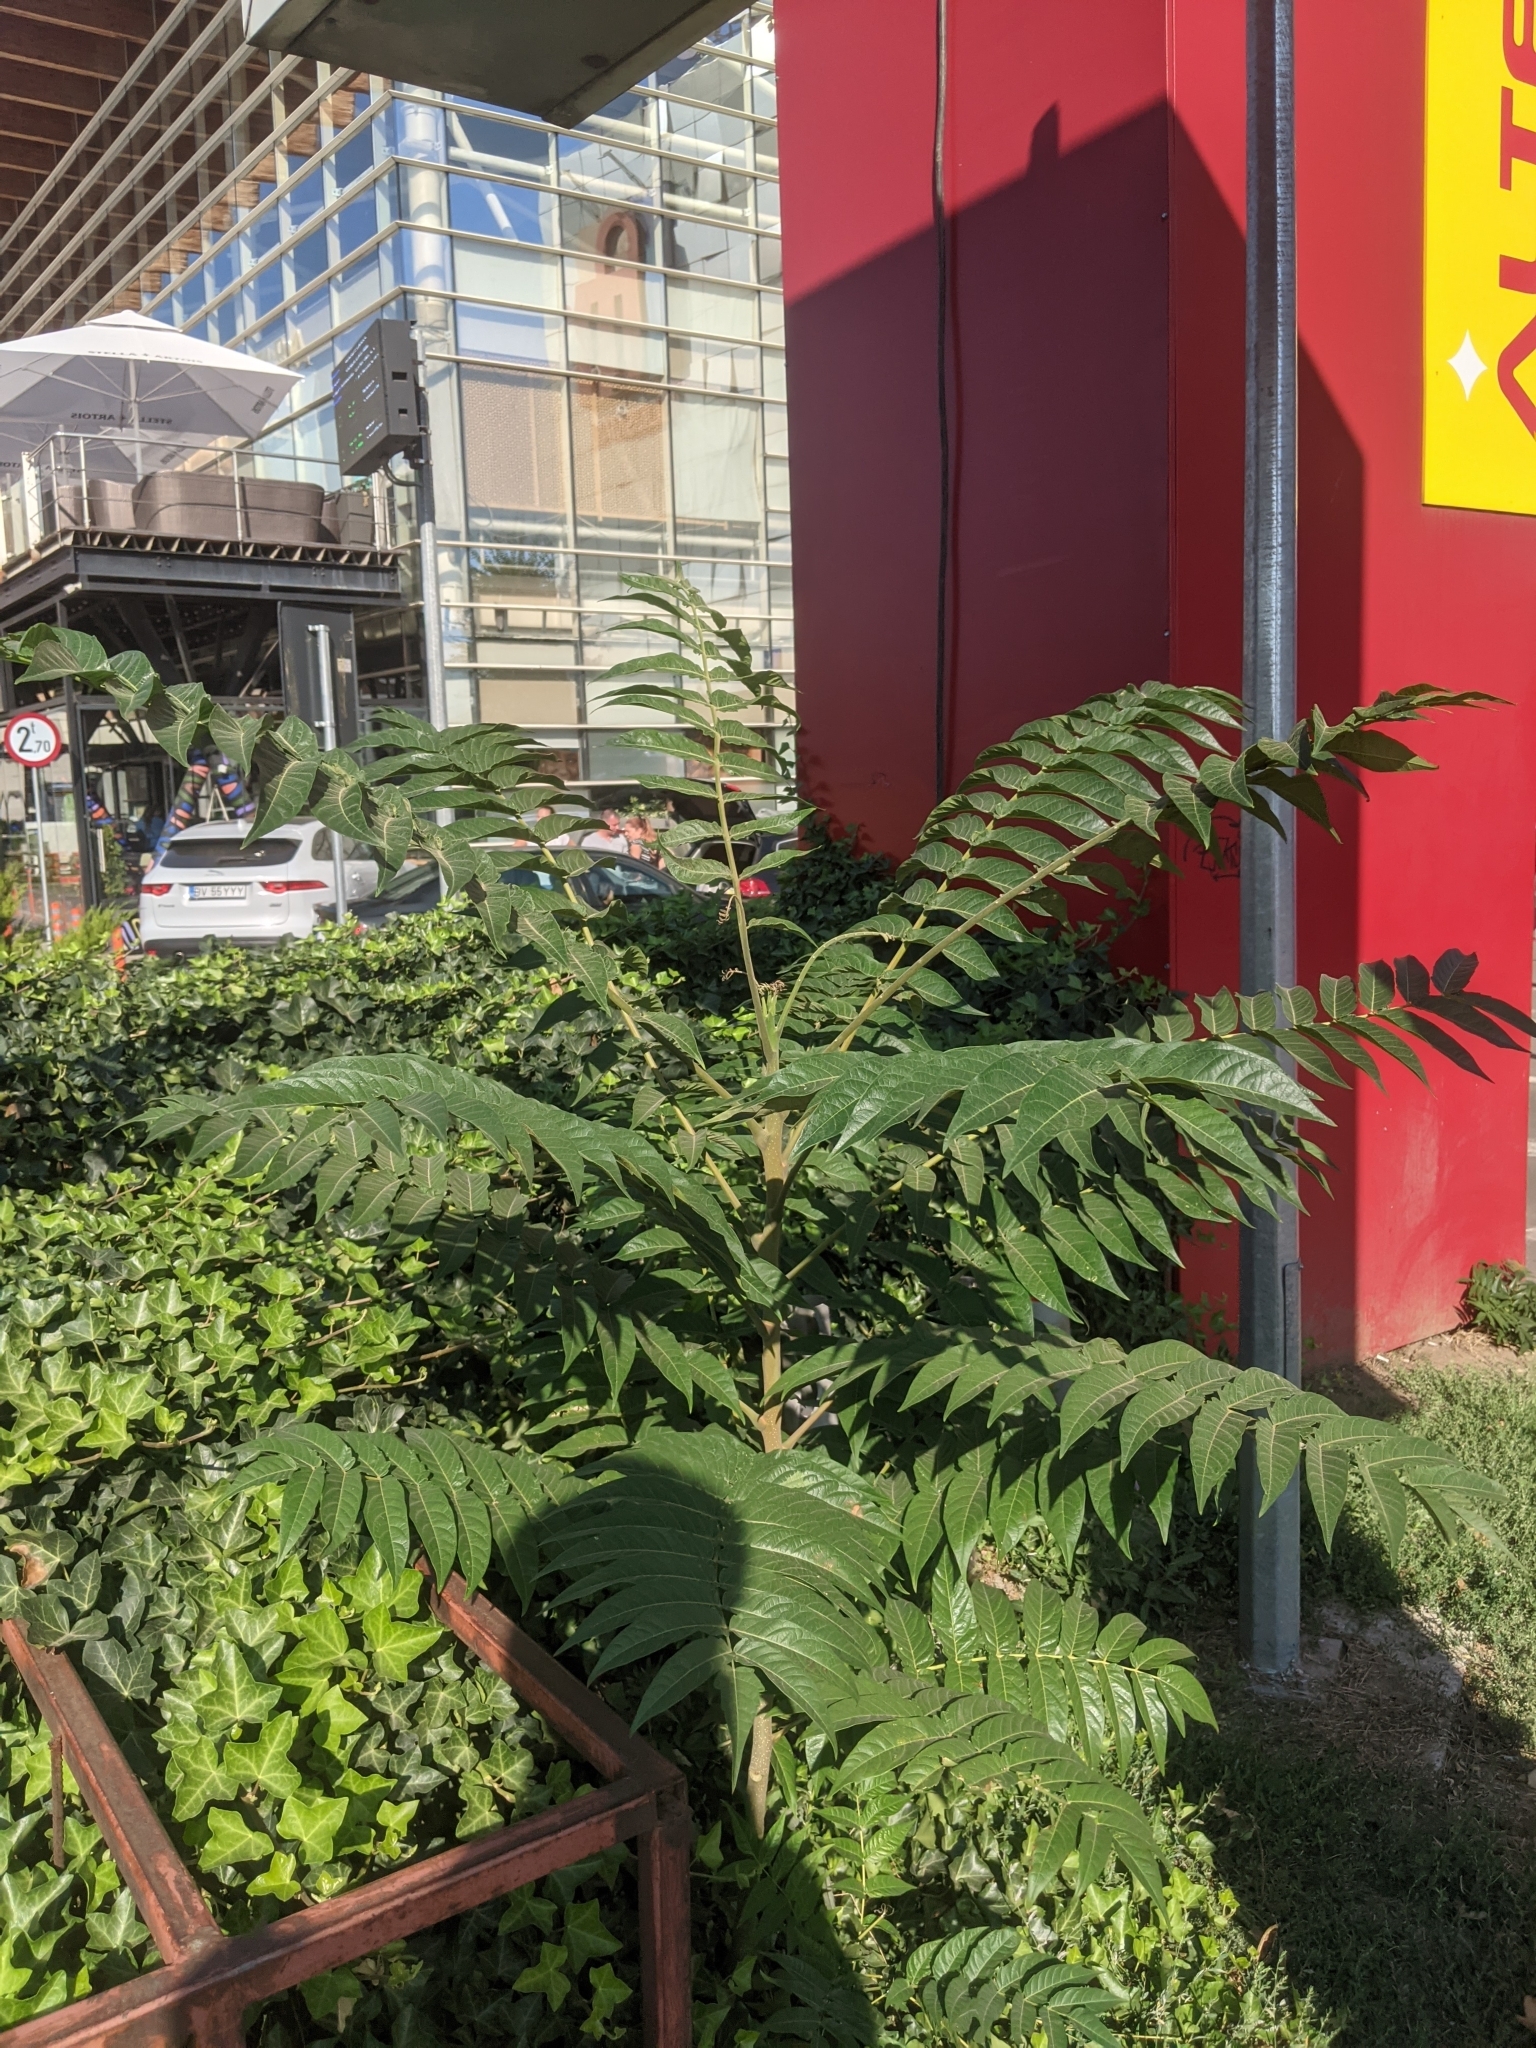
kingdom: Plantae
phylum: Tracheophyta
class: Magnoliopsida
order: Sapindales
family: Simaroubaceae
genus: Ailanthus
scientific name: Ailanthus altissima
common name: Tree-of-heaven
